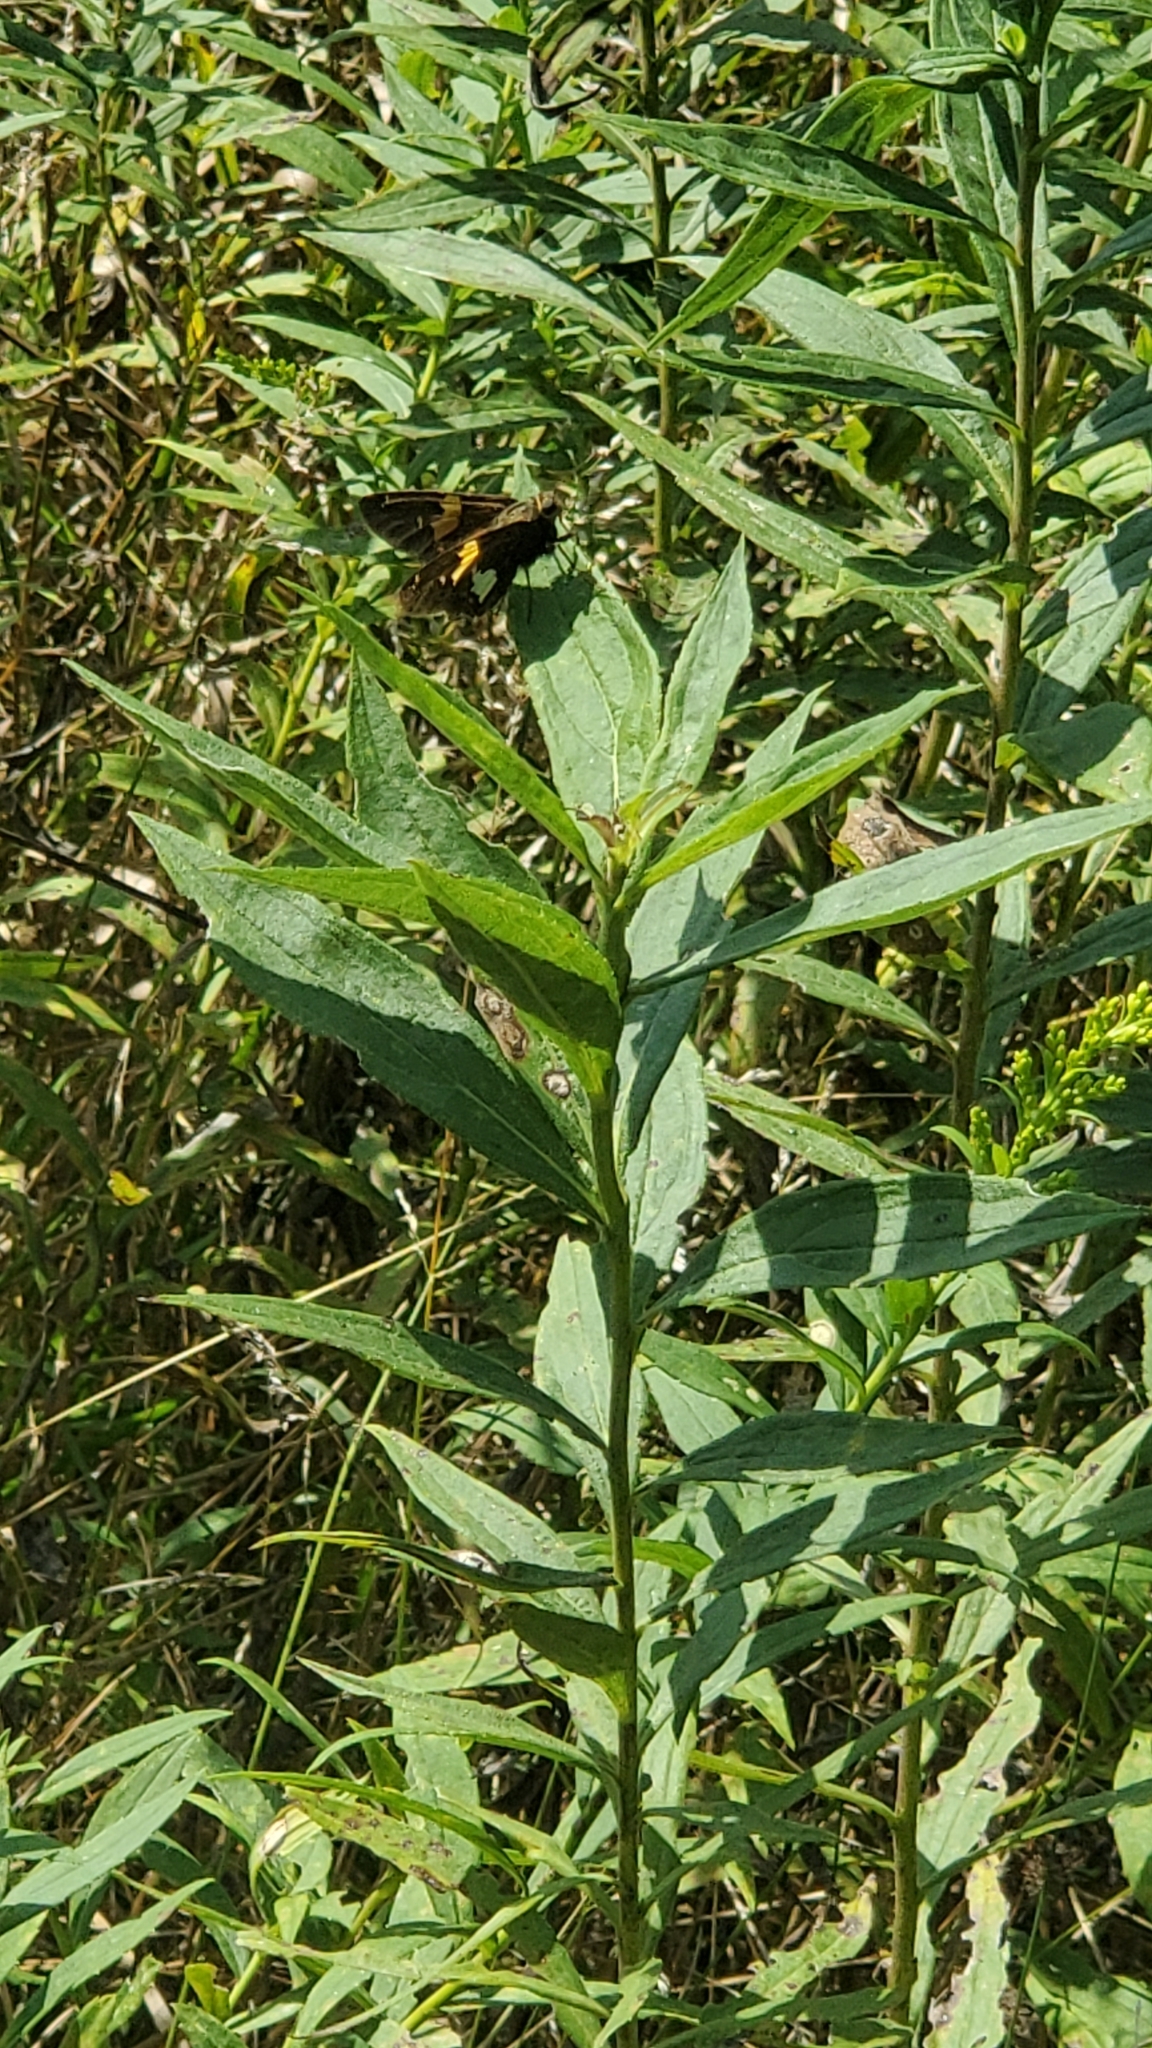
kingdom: Animalia
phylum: Arthropoda
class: Insecta
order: Lepidoptera
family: Hesperiidae
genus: Epargyreus
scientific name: Epargyreus clarus
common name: Silver-spotted skipper
